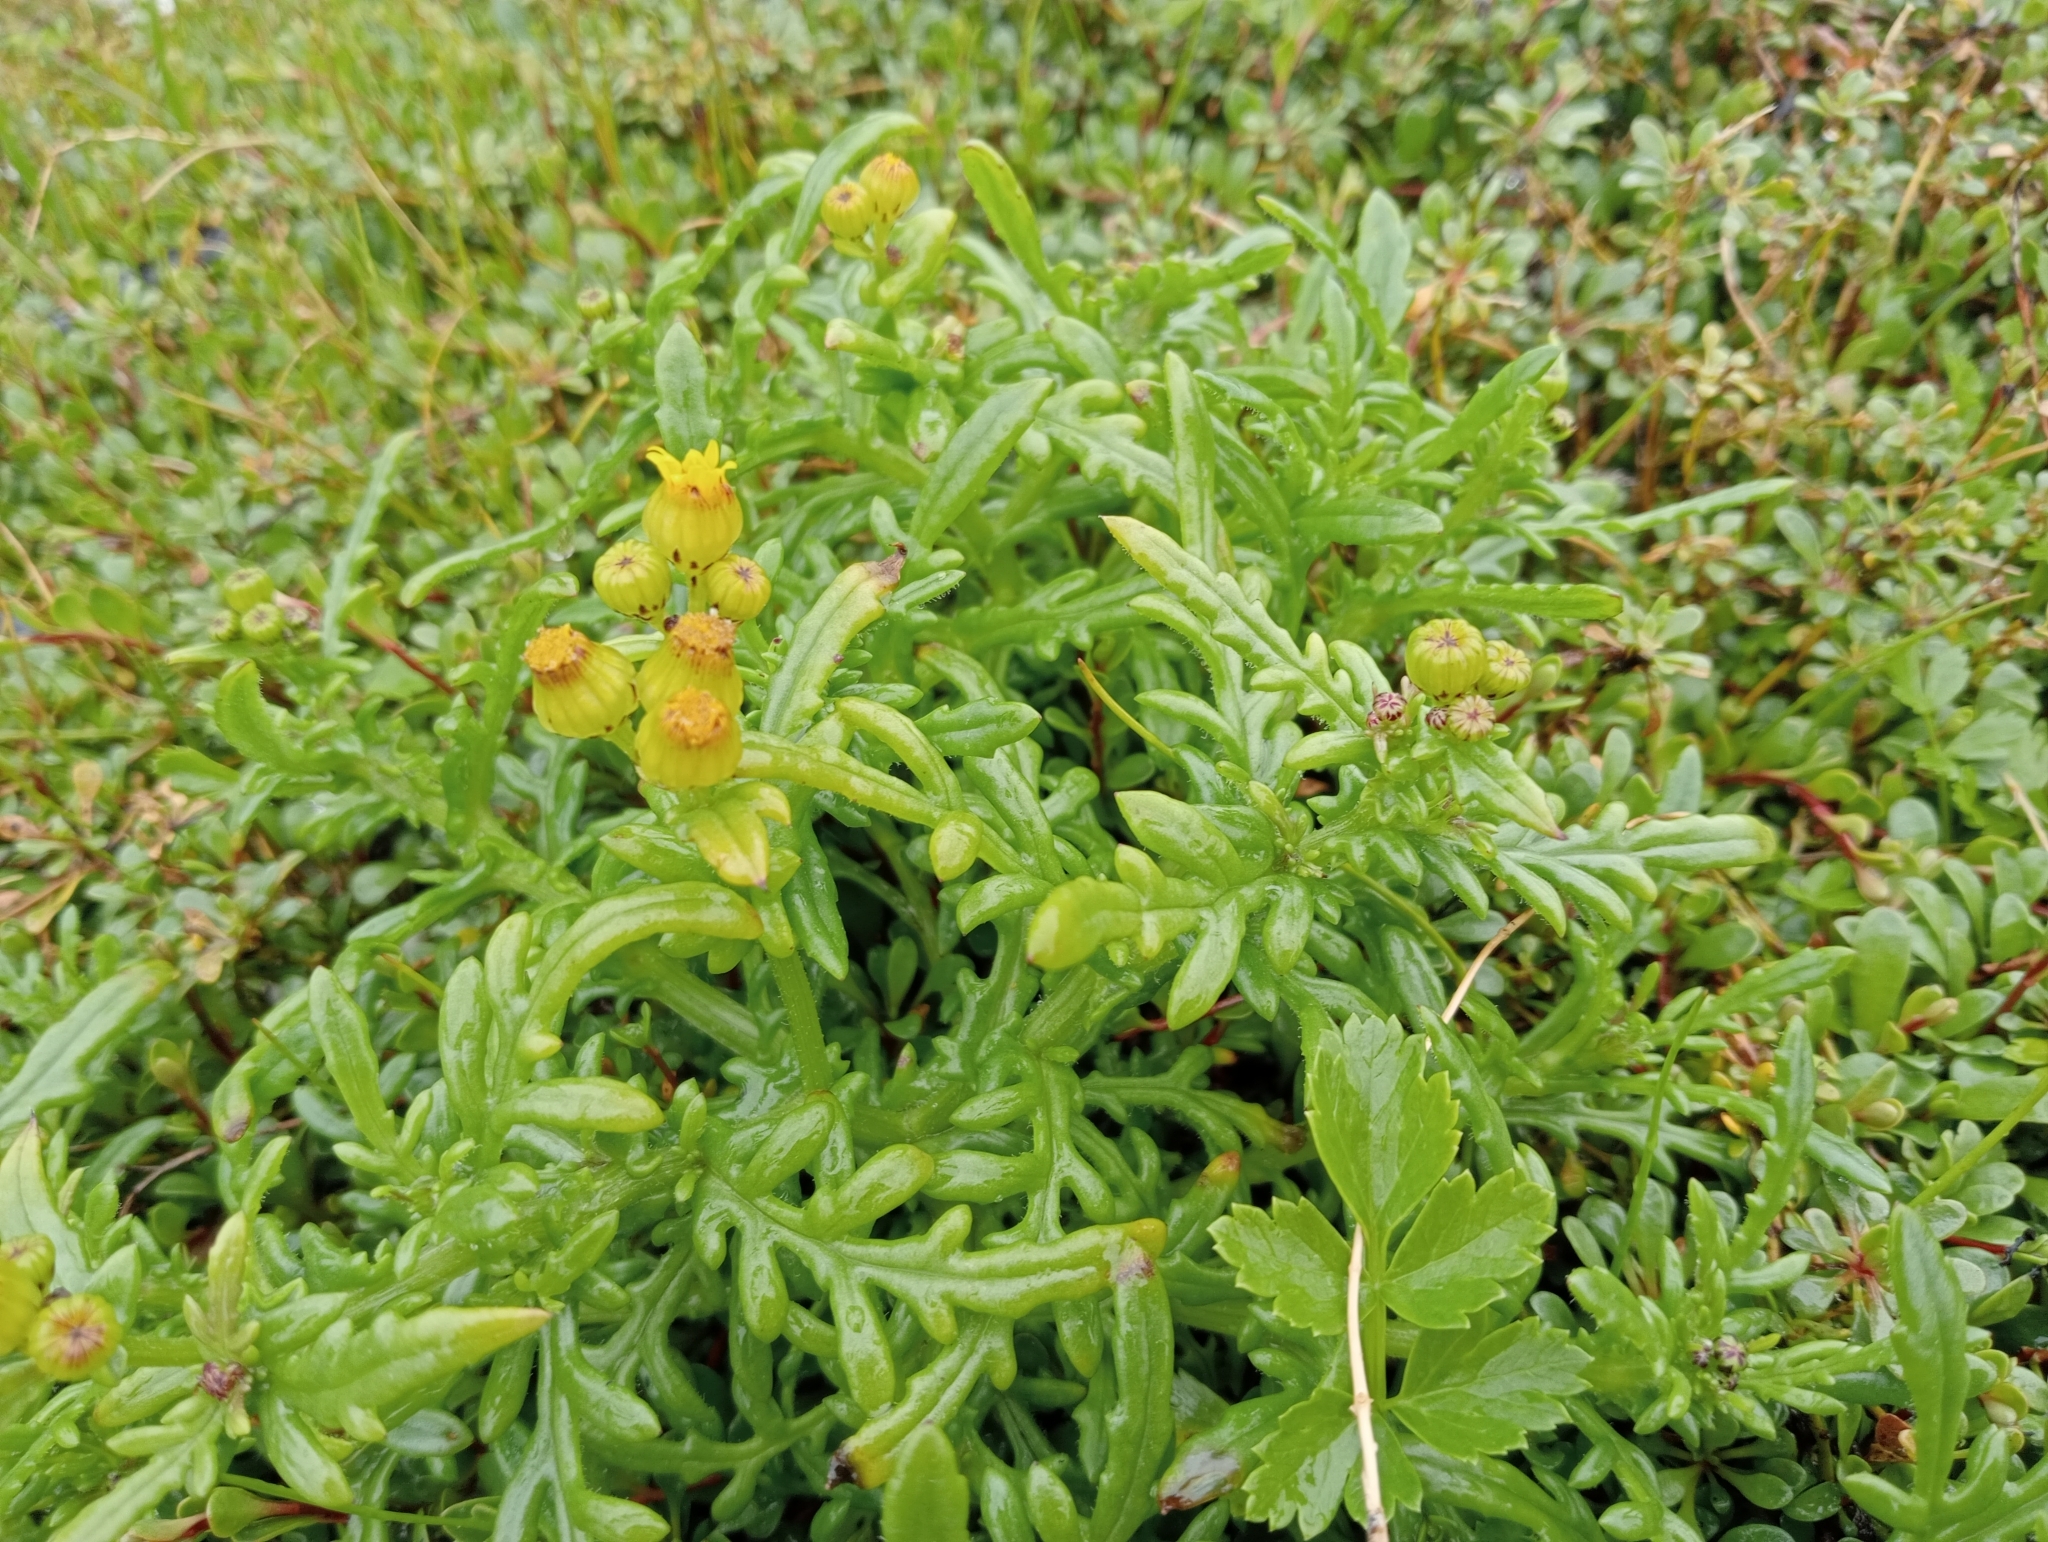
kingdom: Plantae
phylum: Tracheophyta
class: Magnoliopsida
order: Asterales
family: Asteraceae
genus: Senecio
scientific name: Senecio lautus
